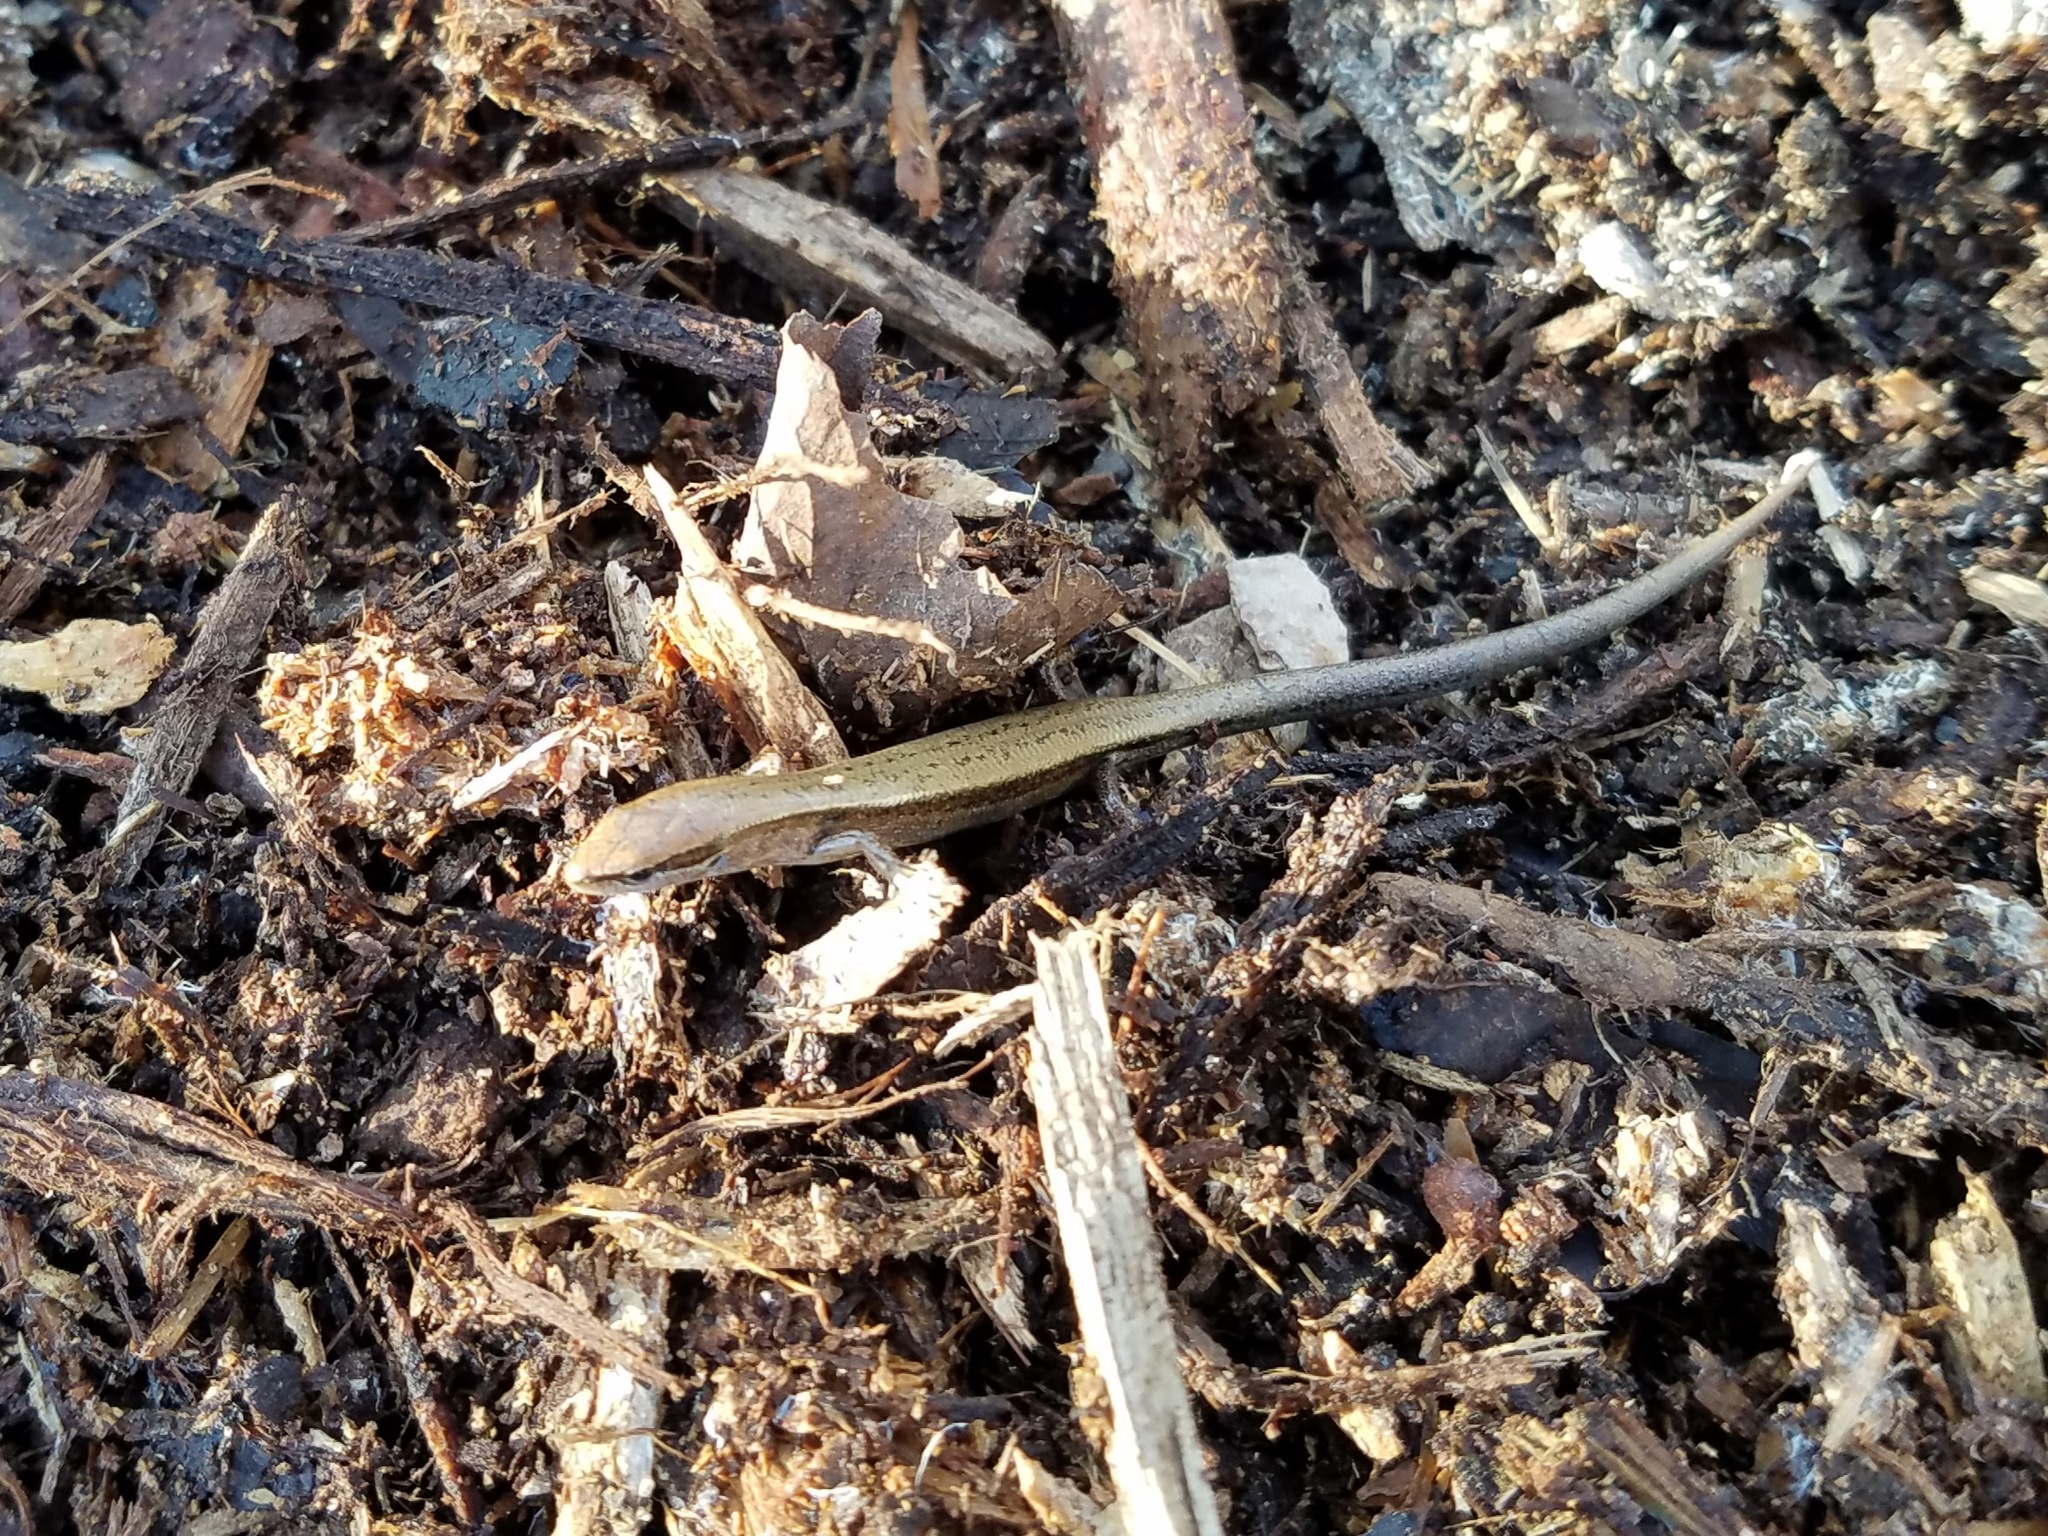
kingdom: Animalia
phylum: Chordata
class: Squamata
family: Scincidae
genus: Scincella
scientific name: Scincella lateralis
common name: Ground skink
